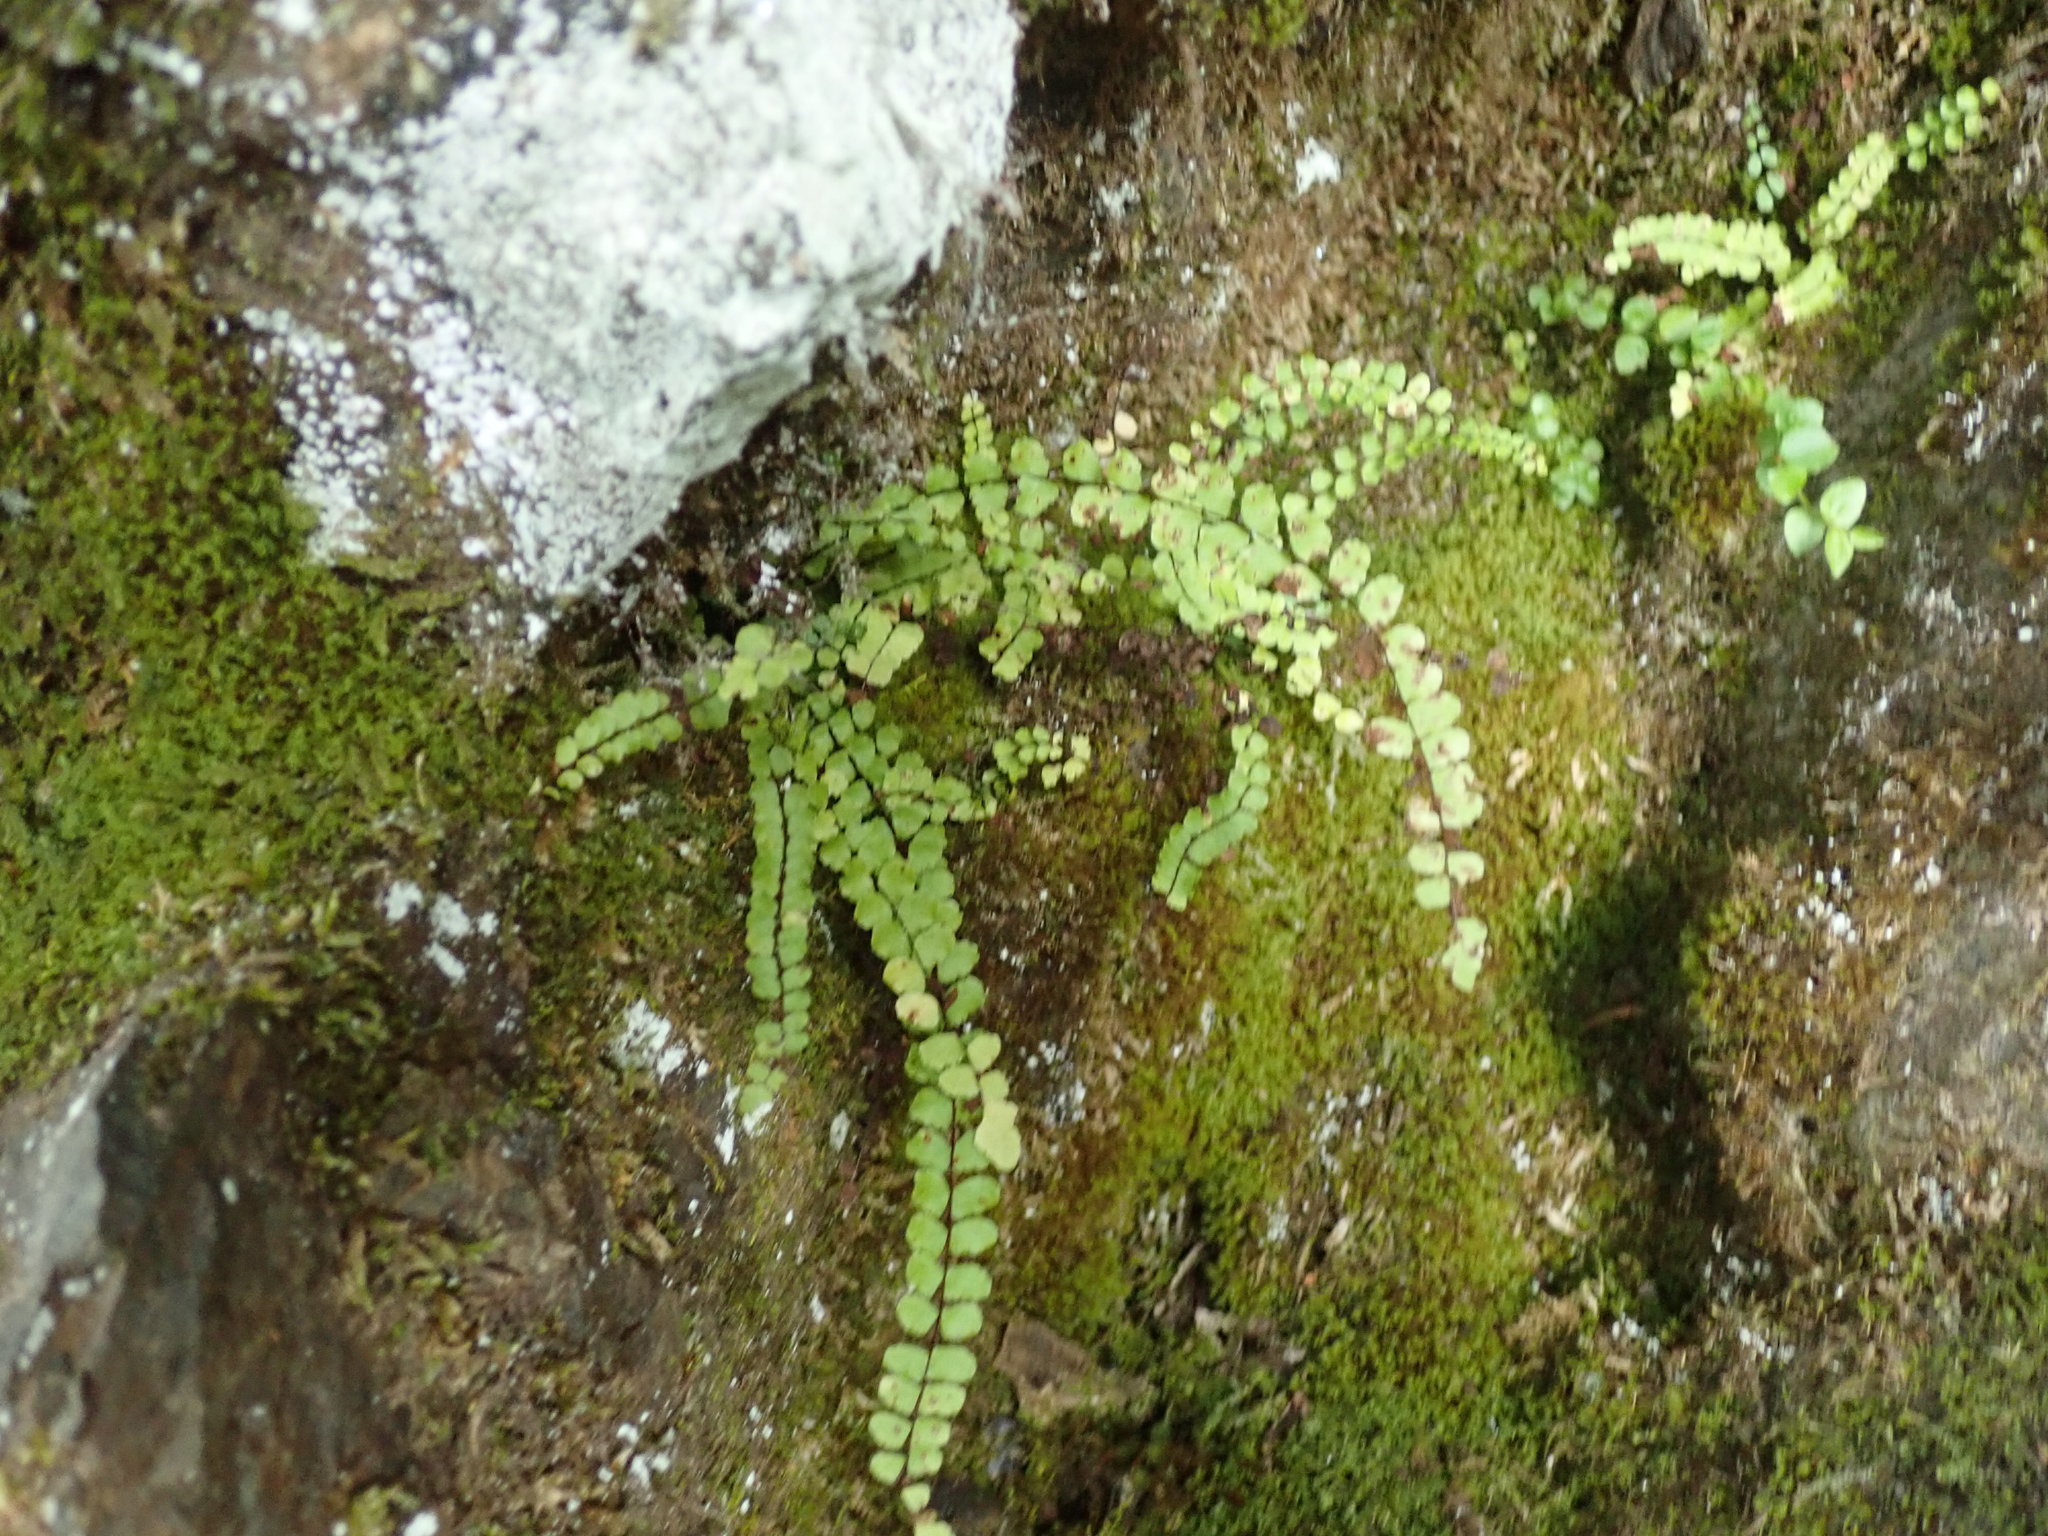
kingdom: Plantae
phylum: Tracheophyta
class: Polypodiopsida
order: Polypodiales
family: Aspleniaceae
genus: Asplenium
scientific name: Asplenium trichomanes
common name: Maidenhair spleenwort
